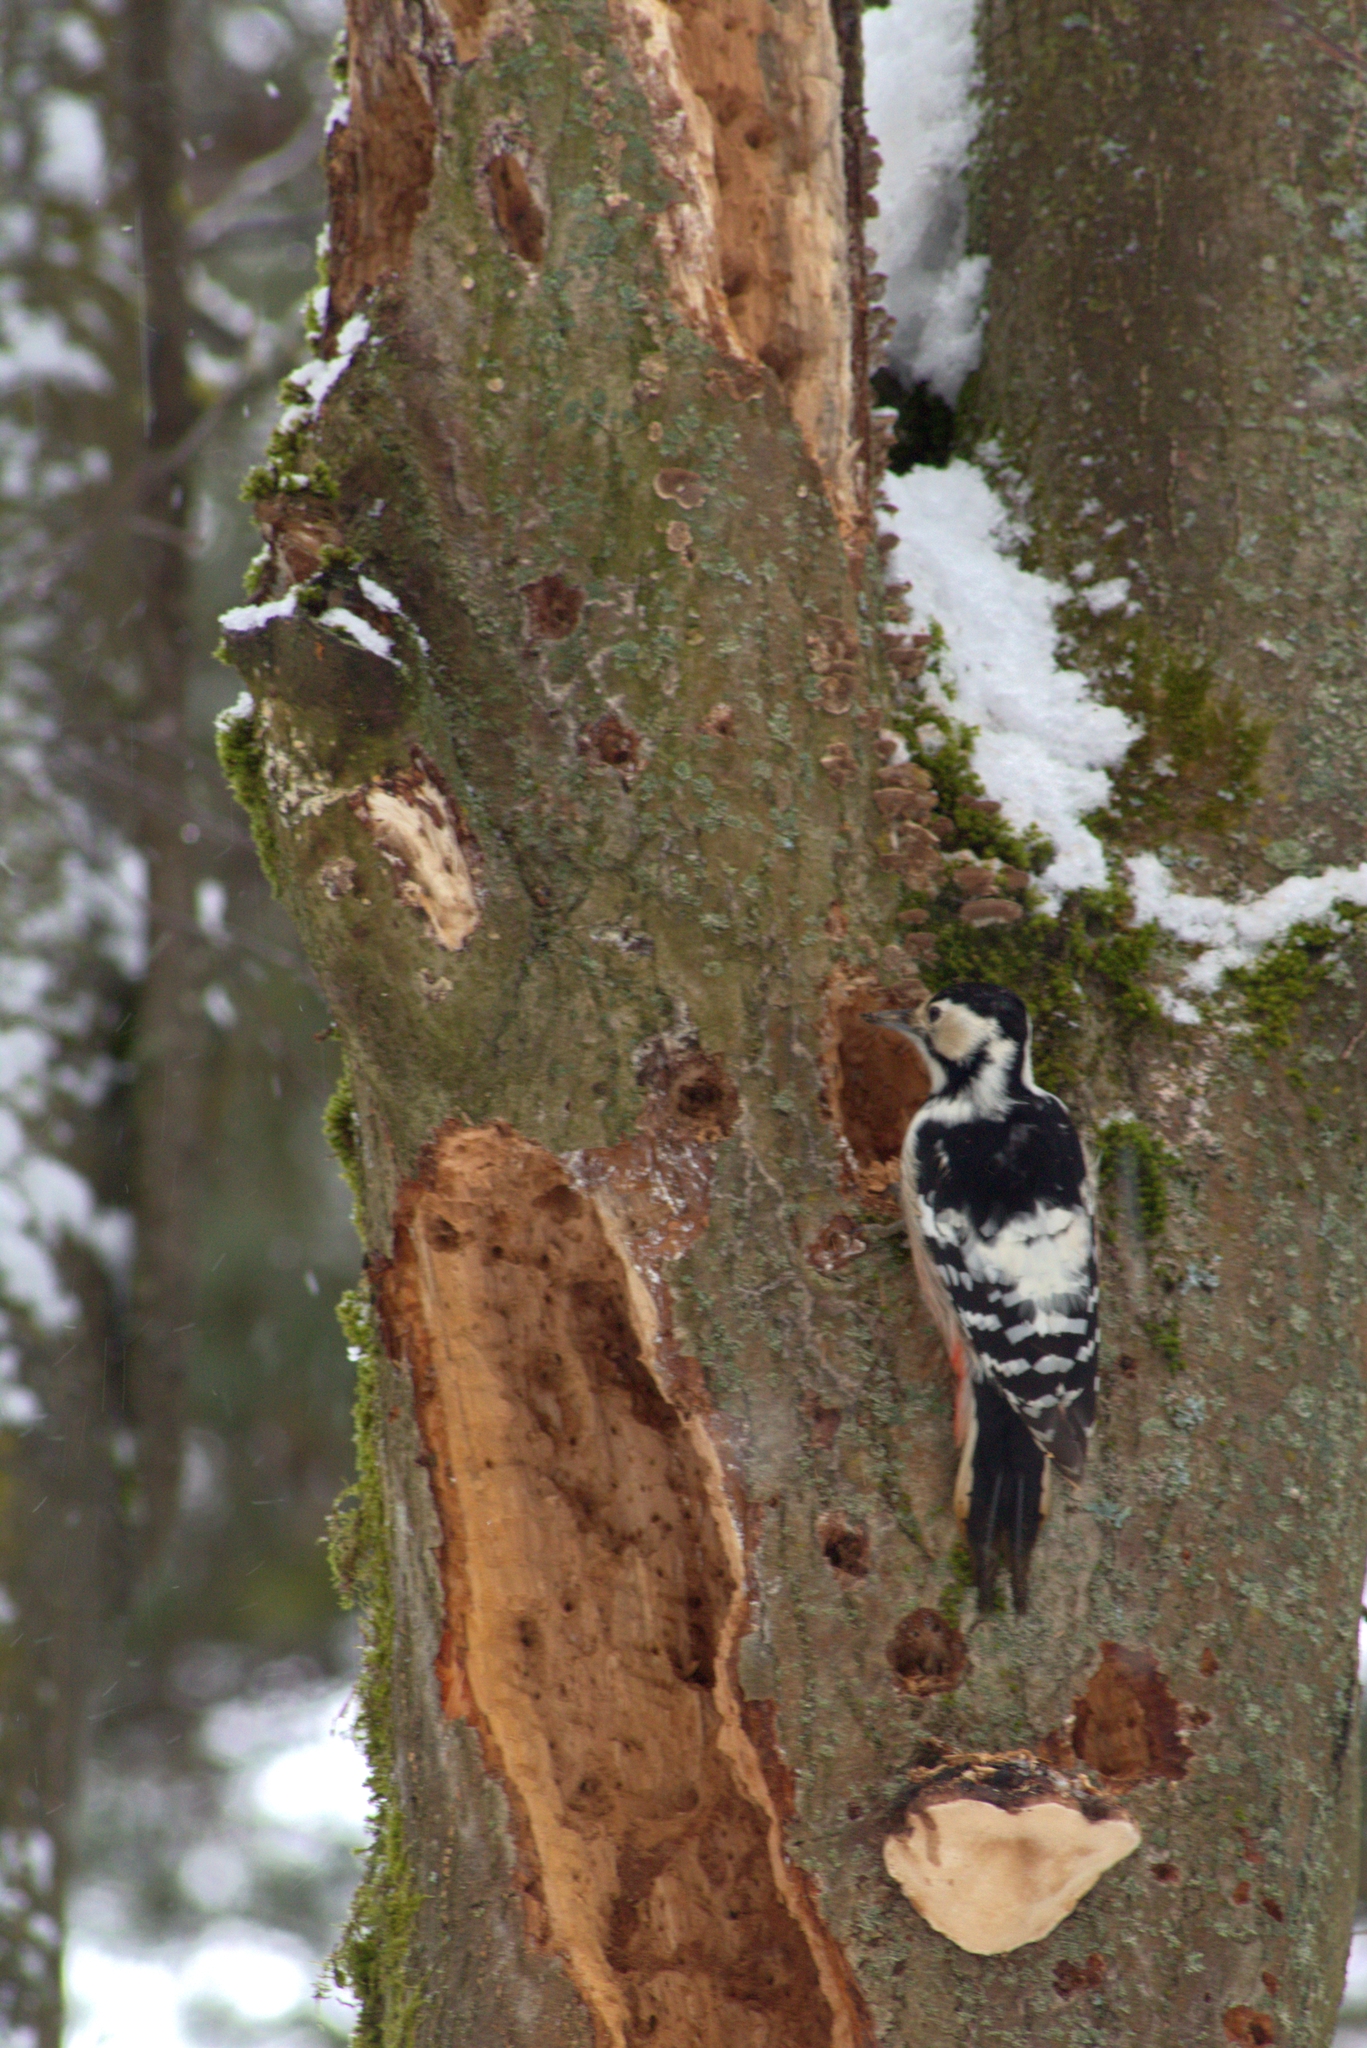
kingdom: Animalia
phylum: Chordata
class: Aves
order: Piciformes
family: Picidae
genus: Dendrocopos
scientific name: Dendrocopos leucotos
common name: White-backed woodpecker
